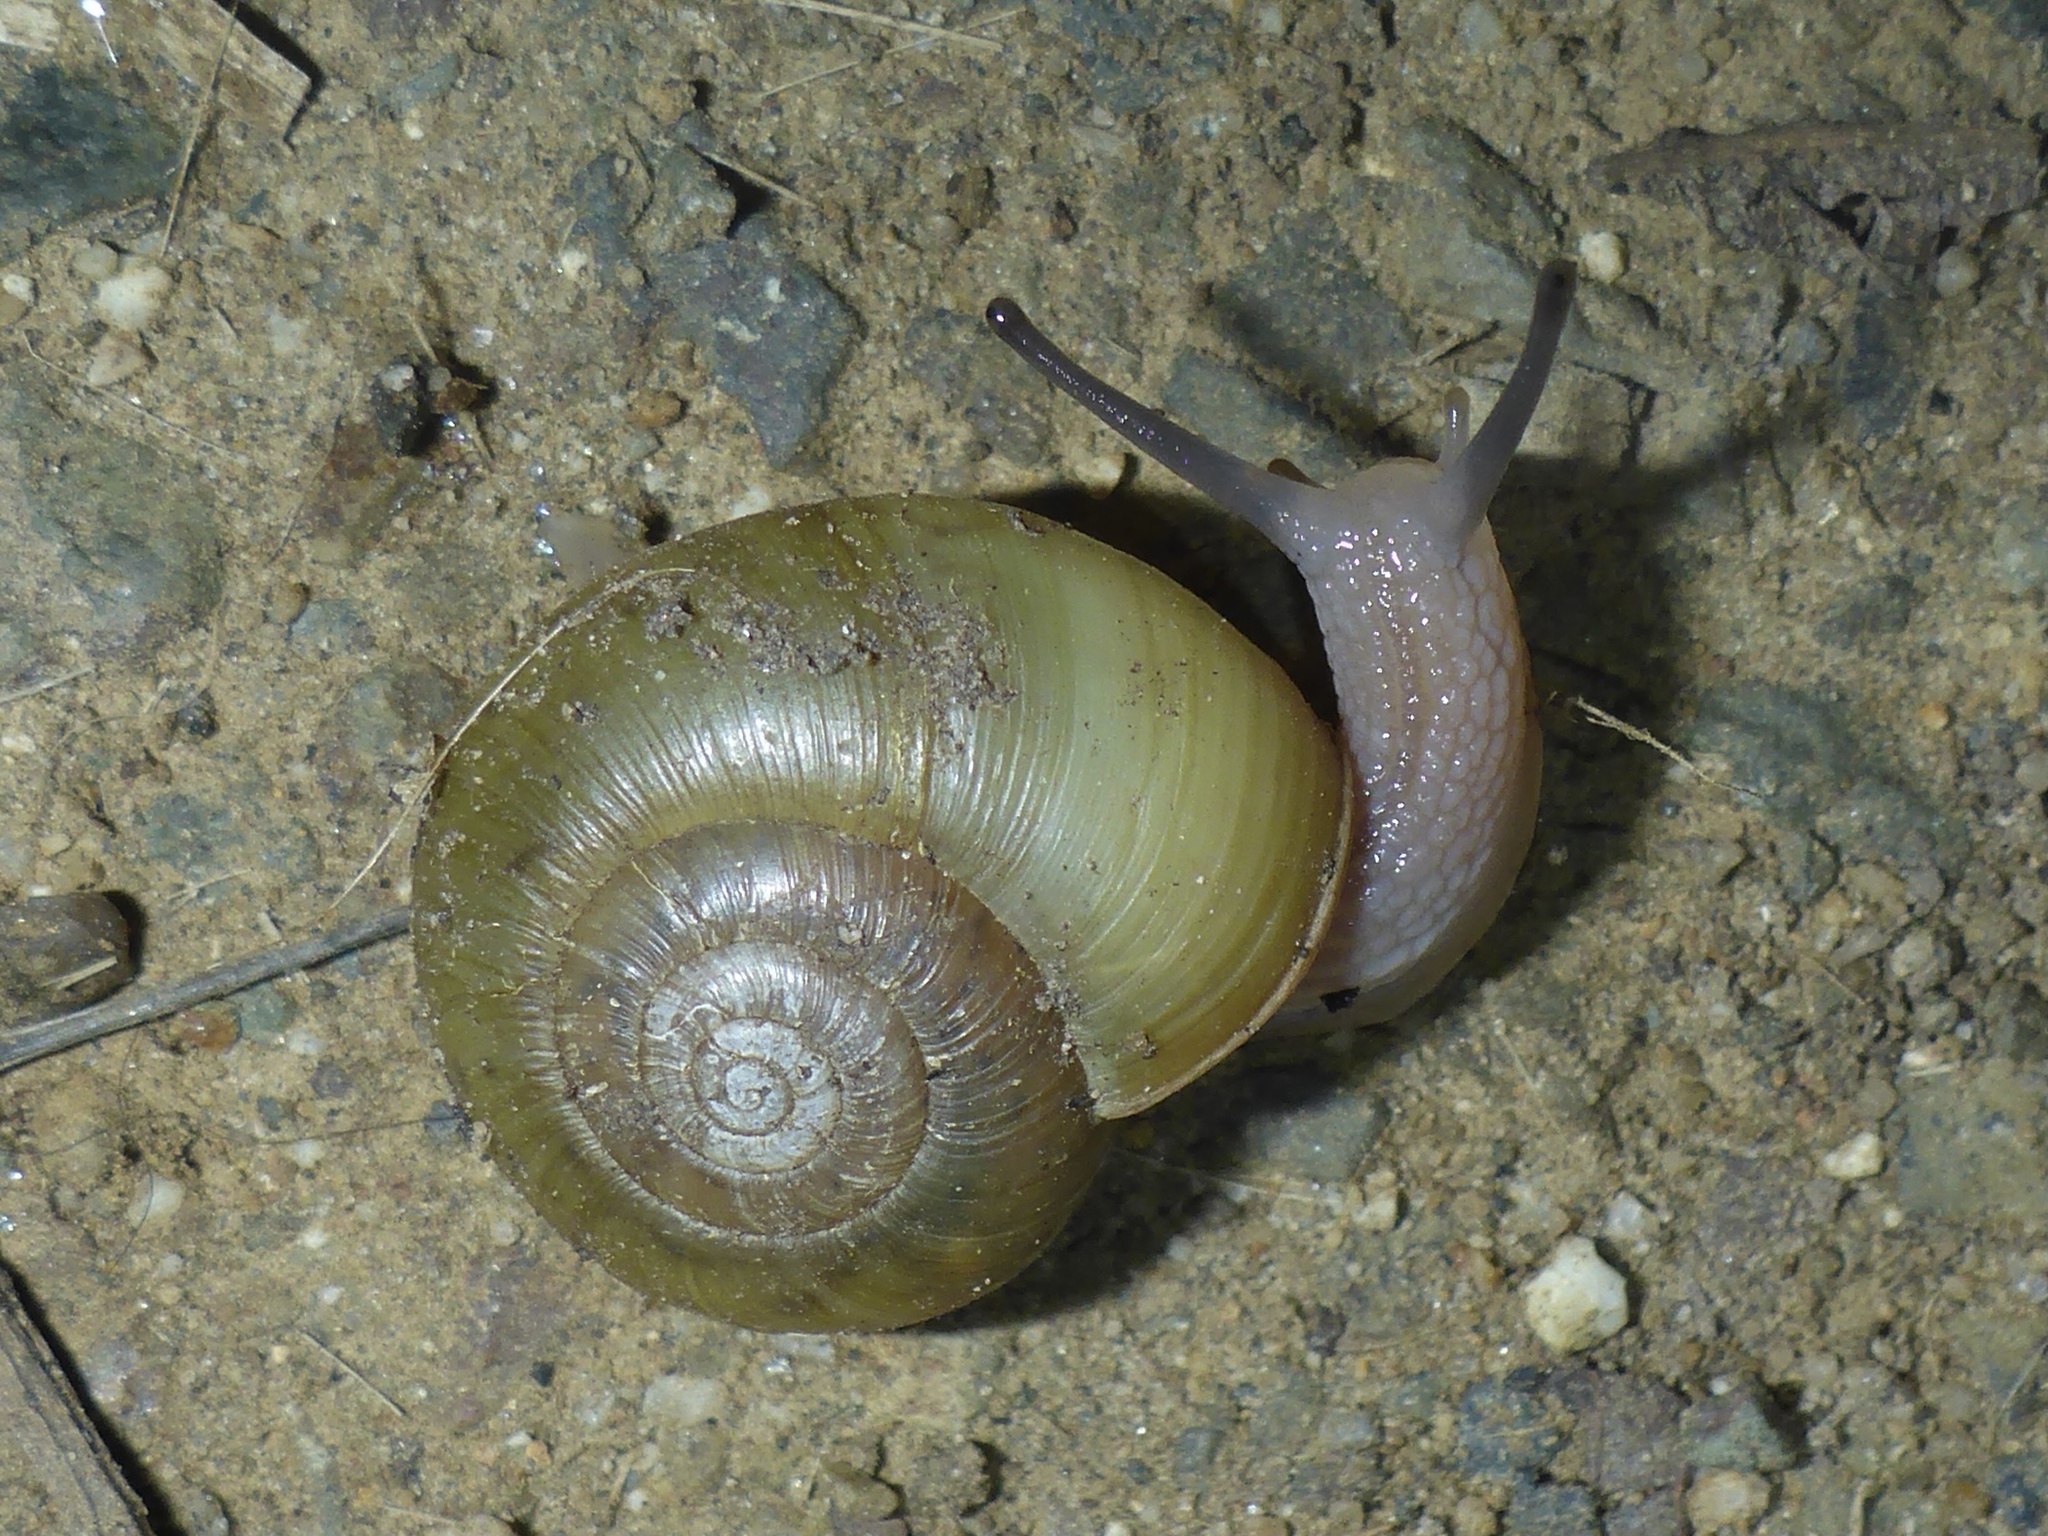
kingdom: Animalia
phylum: Mollusca
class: Gastropoda
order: Stylommatophora
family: Haplotrematidae
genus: Haplotrema
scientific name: Haplotrema minimum
